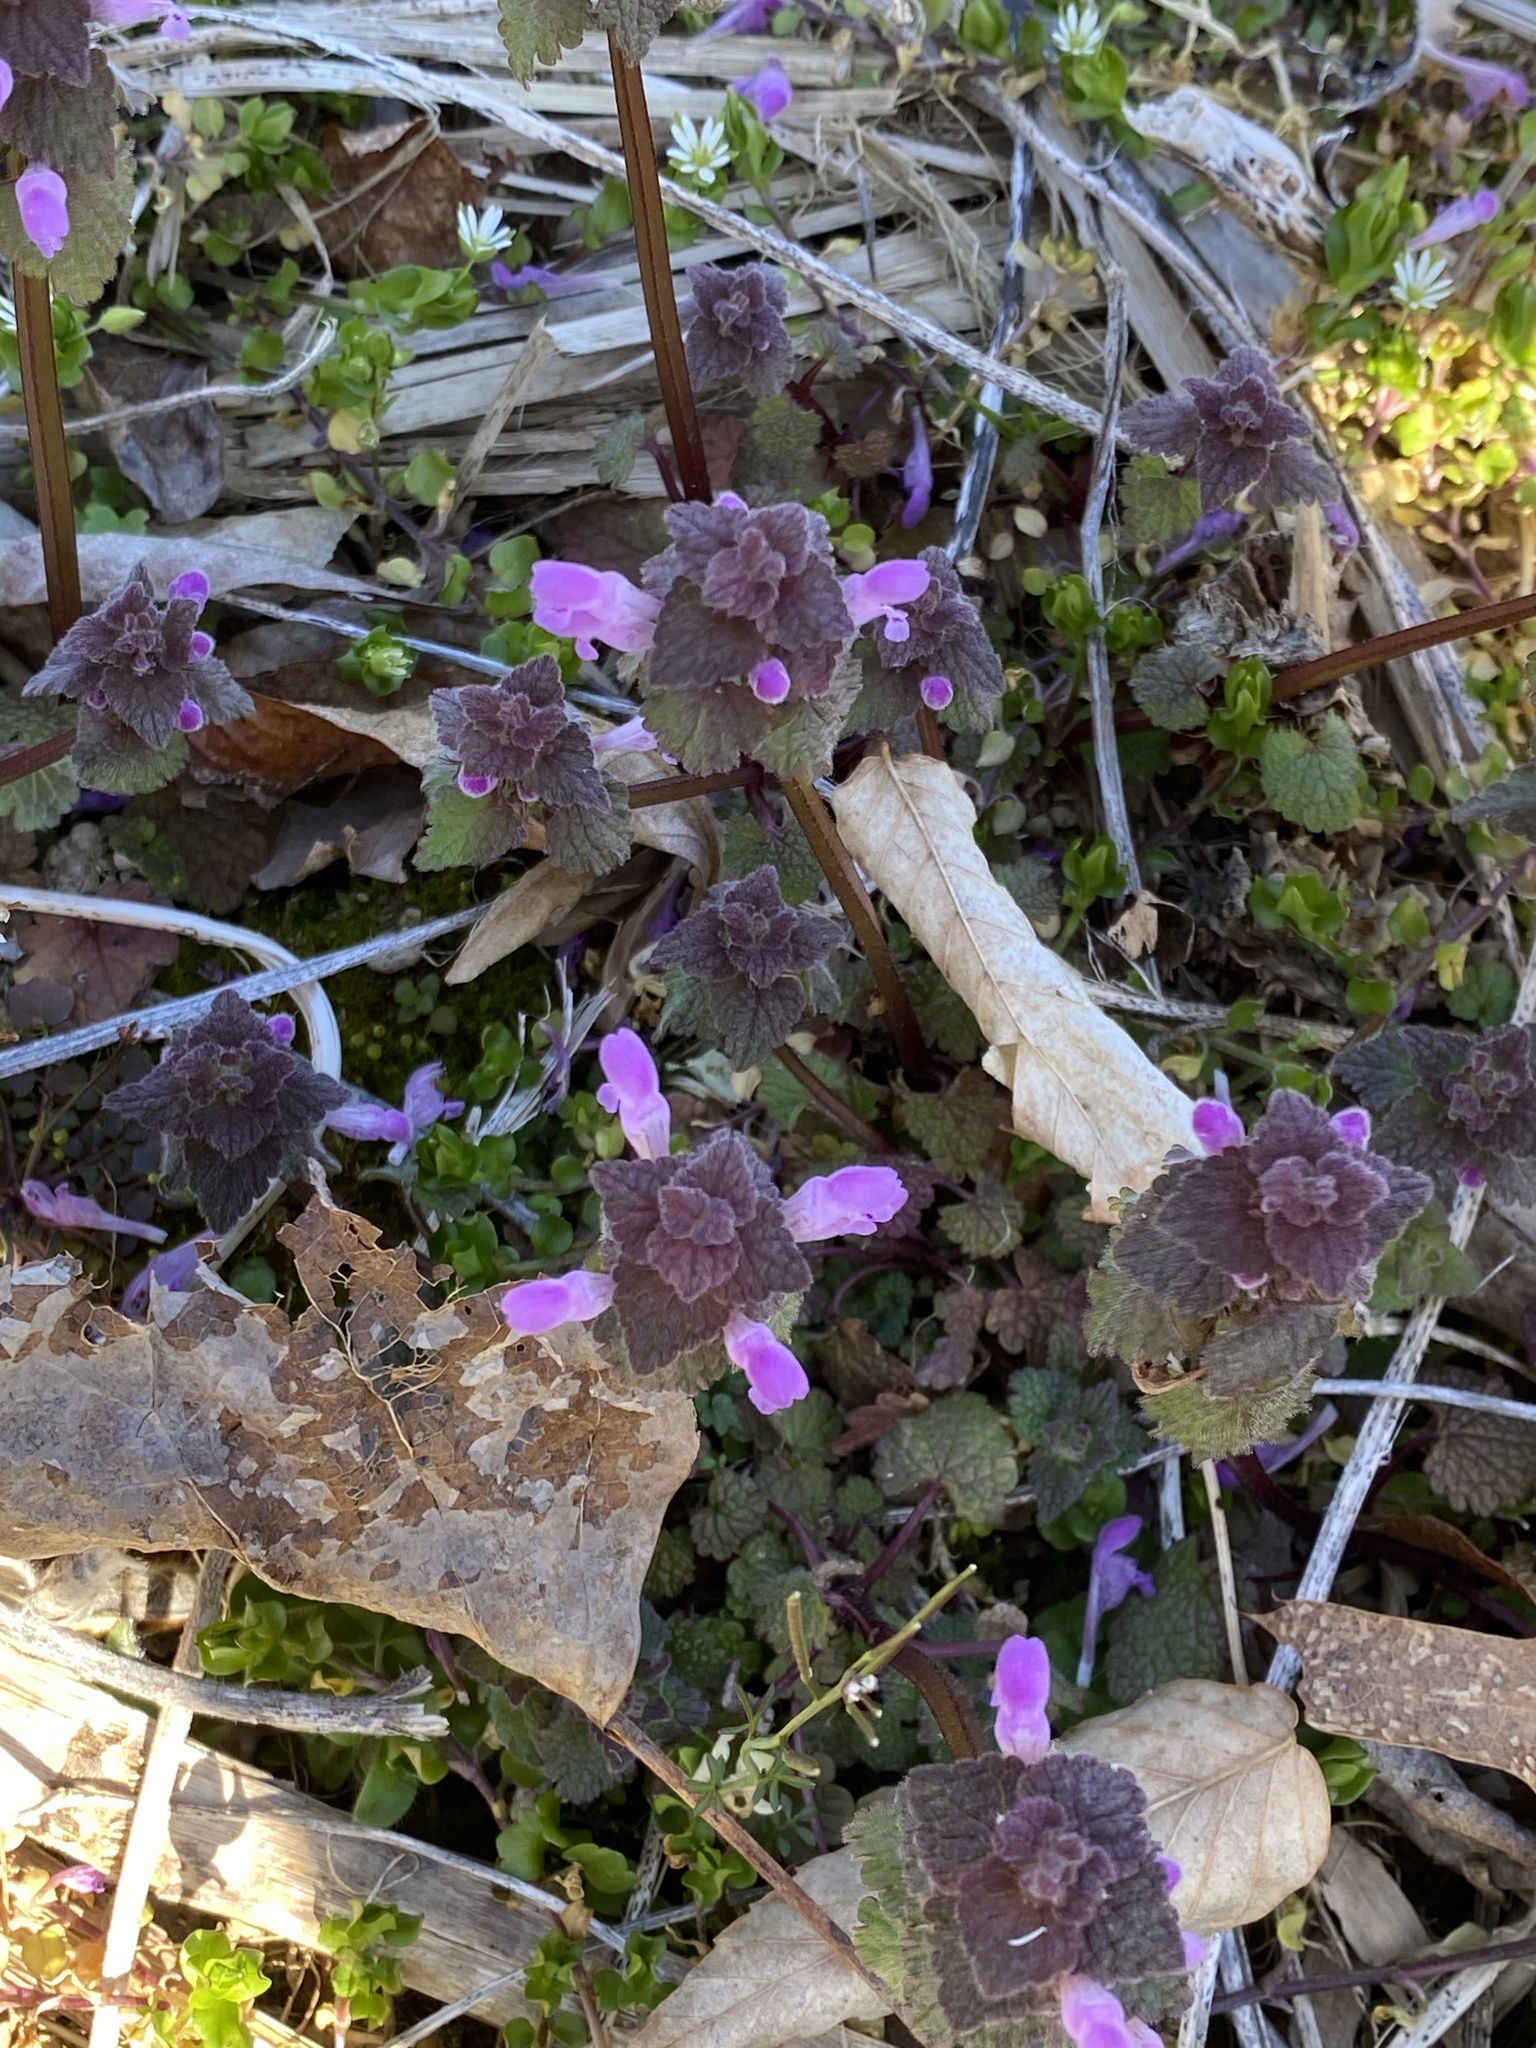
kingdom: Plantae
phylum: Tracheophyta
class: Magnoliopsida
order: Lamiales
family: Lamiaceae
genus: Lamium
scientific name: Lamium purpureum
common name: Red dead-nettle
